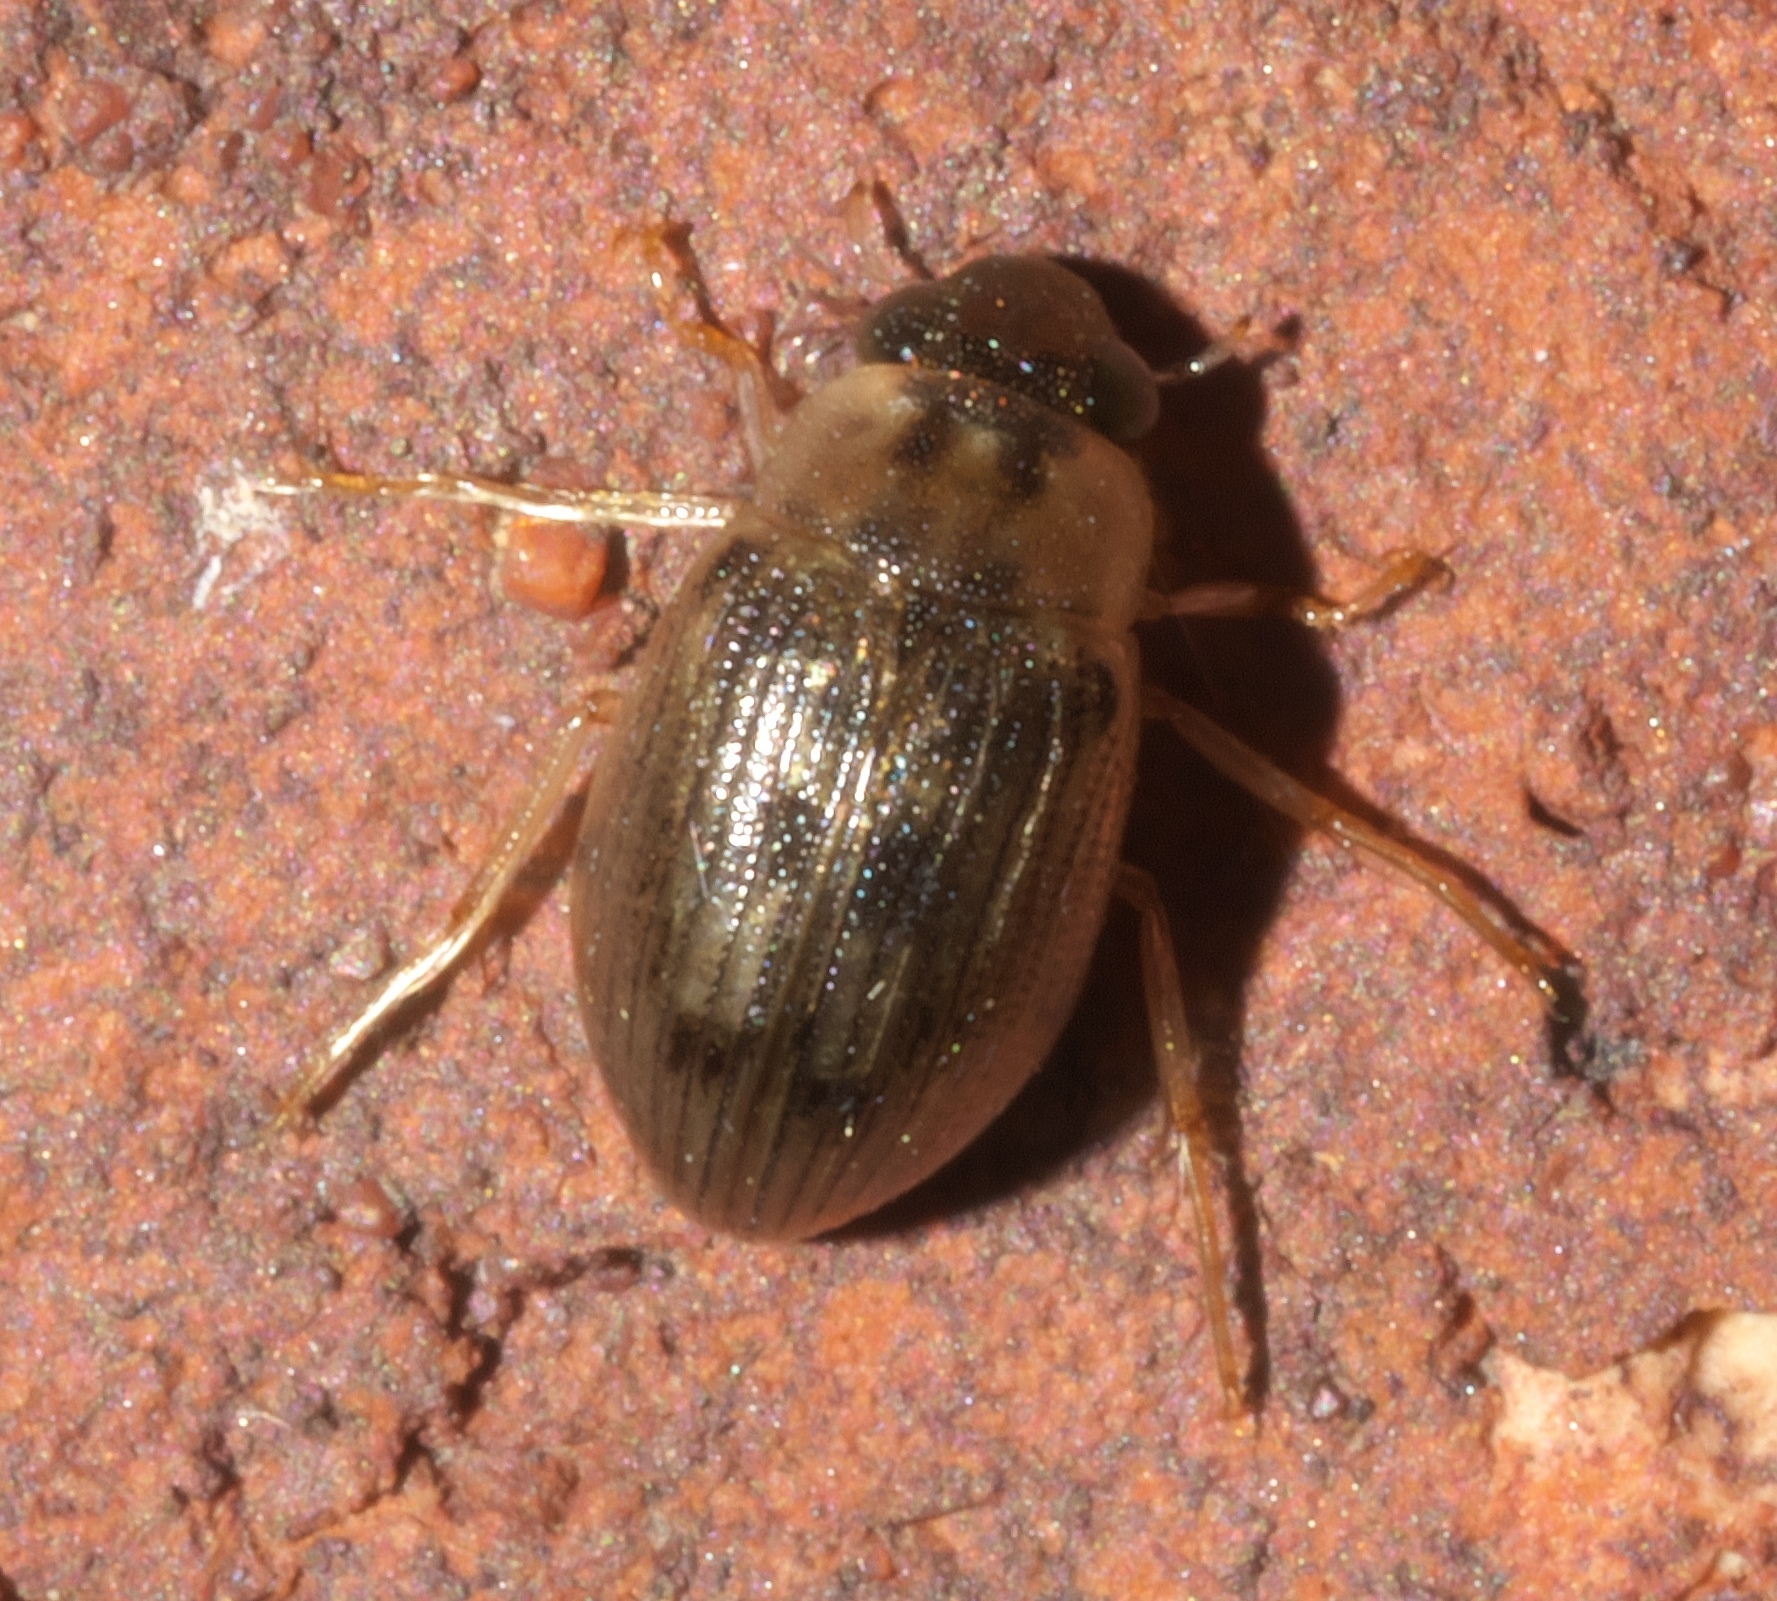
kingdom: Animalia
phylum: Arthropoda
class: Insecta
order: Coleoptera
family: Hydrophilidae
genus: Berosus
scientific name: Berosus
